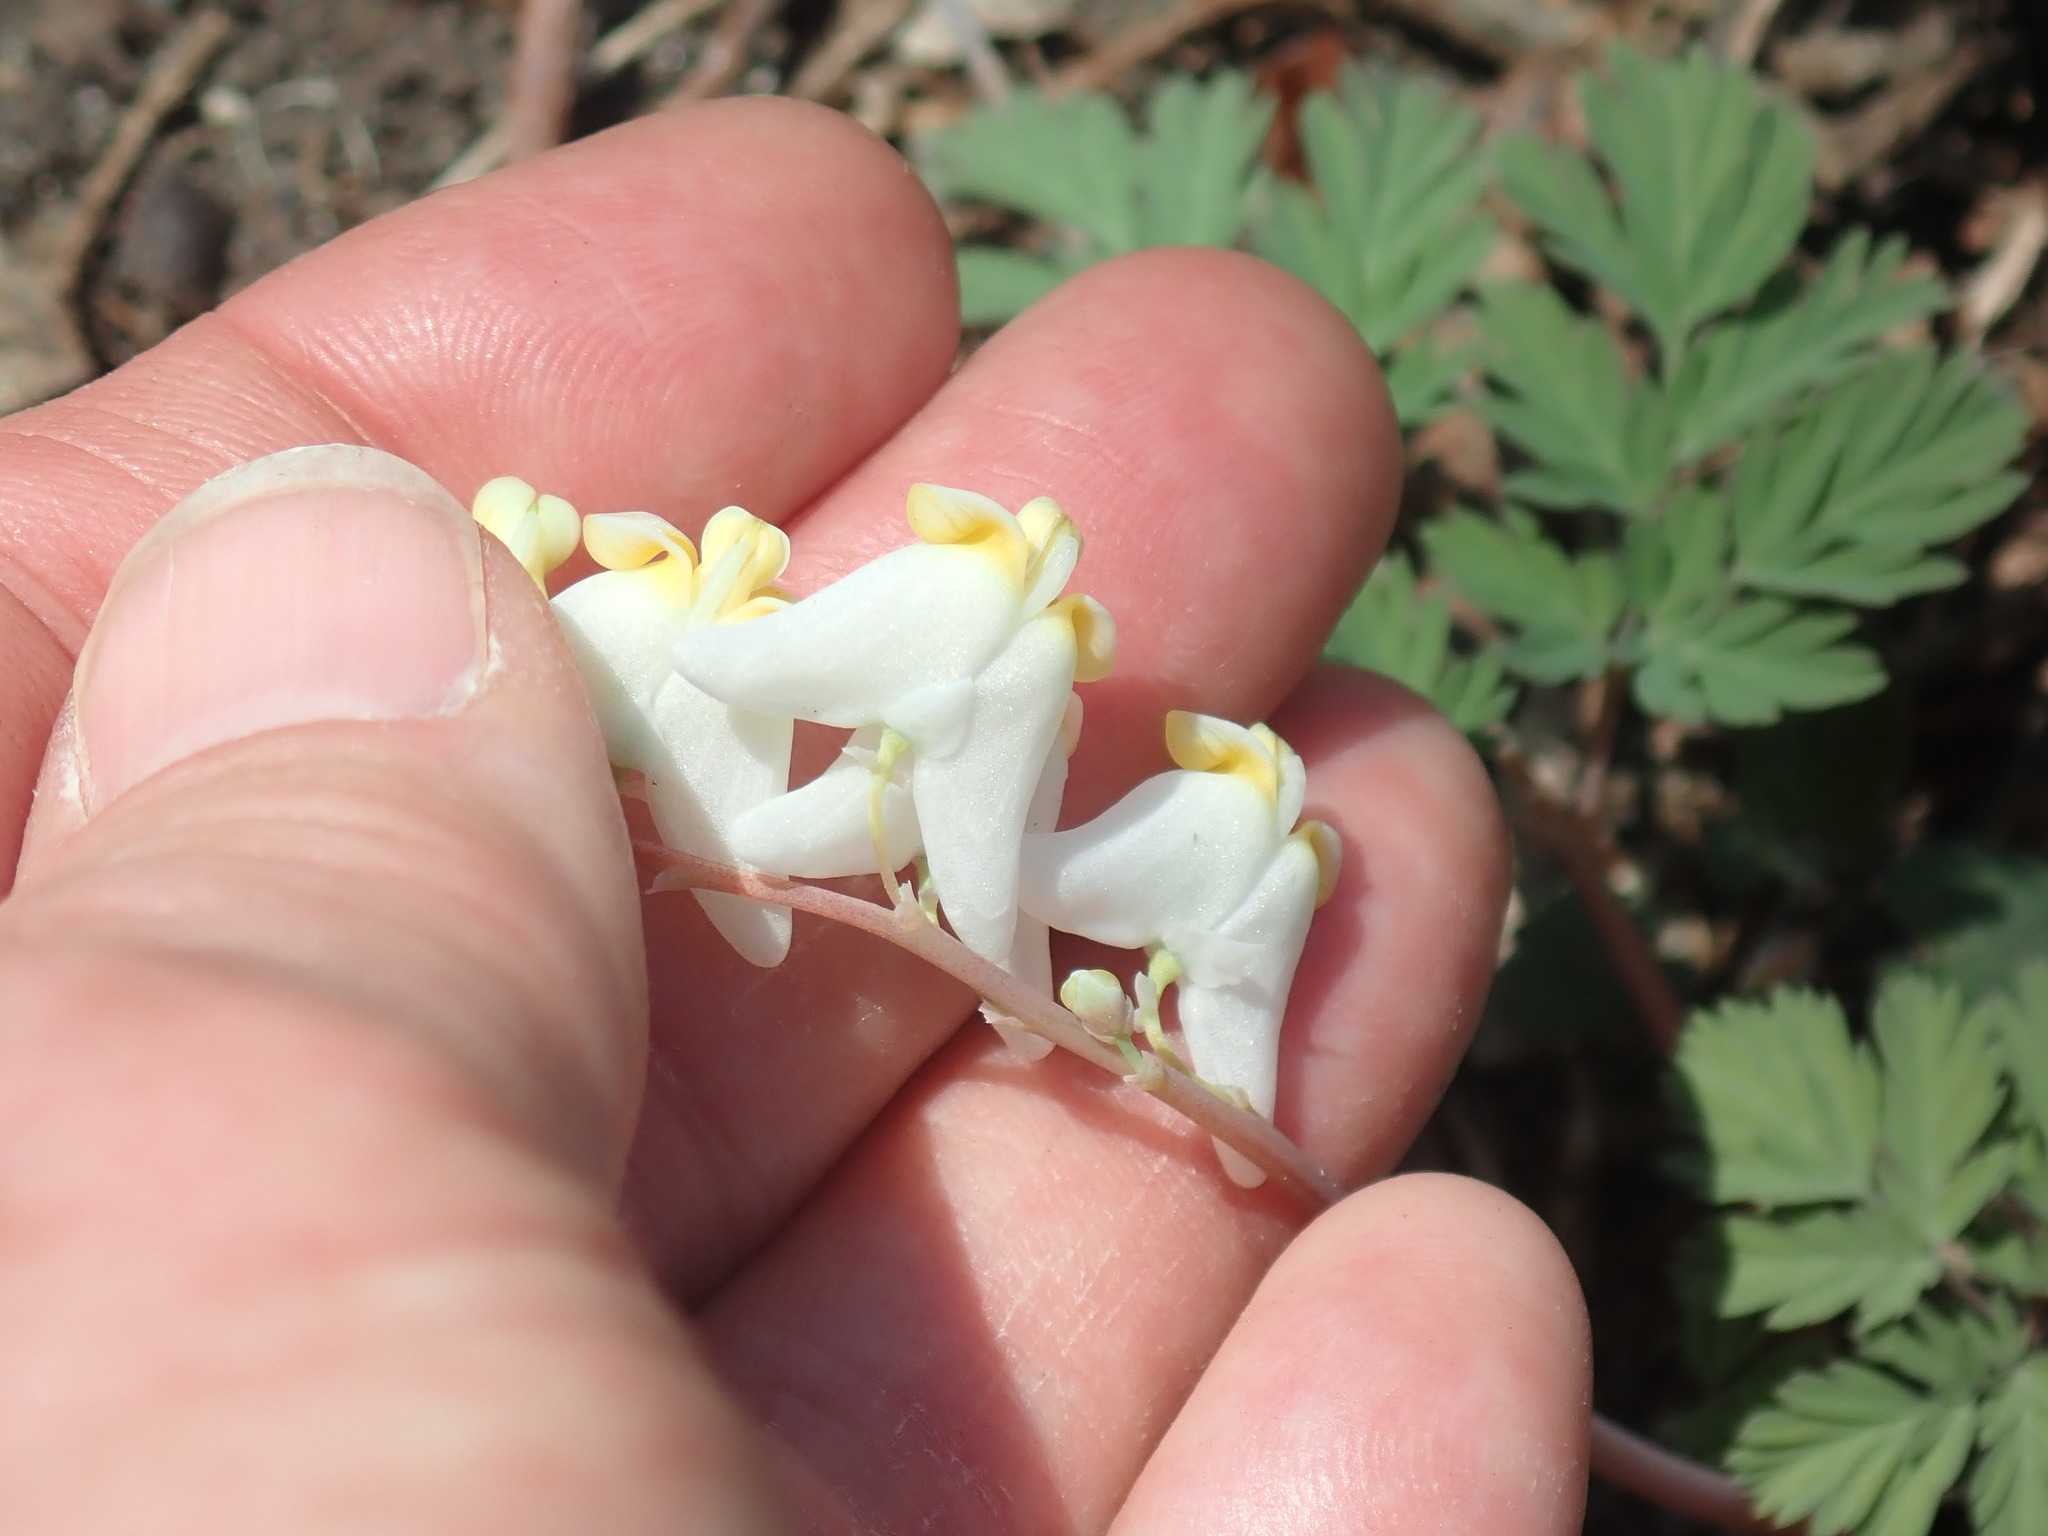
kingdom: Plantae
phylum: Tracheophyta
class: Magnoliopsida
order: Ranunculales
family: Papaveraceae
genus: Dicentra
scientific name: Dicentra cucullaria
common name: Dutchman's breeches
